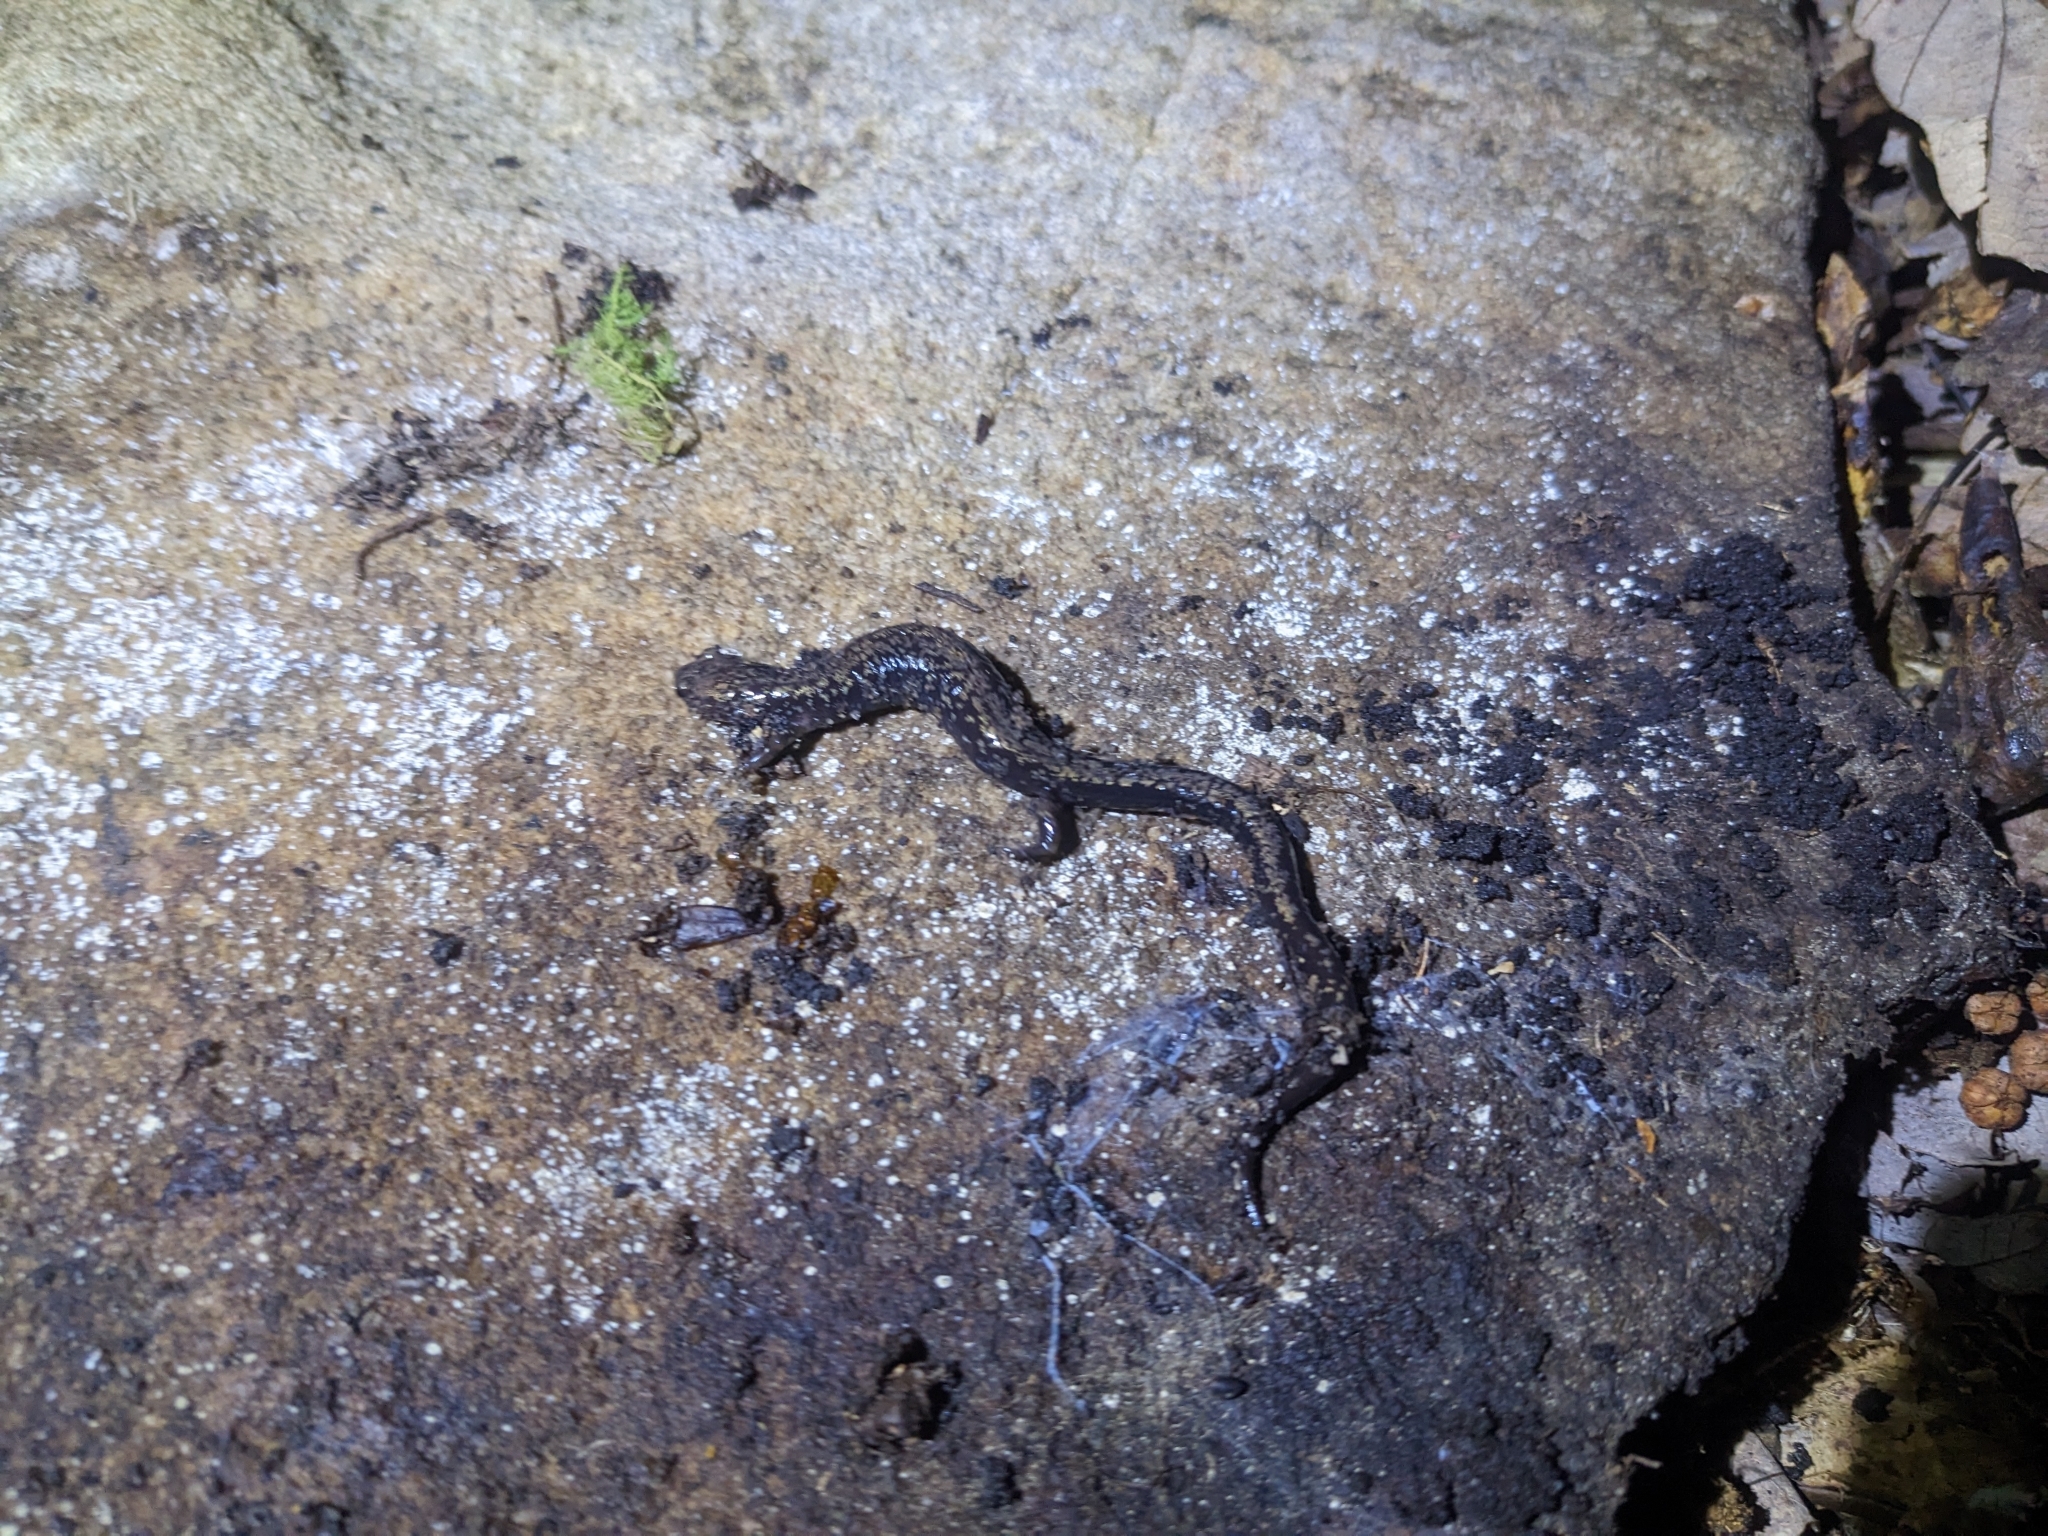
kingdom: Animalia
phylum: Chordata
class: Amphibia
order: Caudata
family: Plethodontidae
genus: Plethodon
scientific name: Plethodon hubrichti
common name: Peaks of otter salamander
